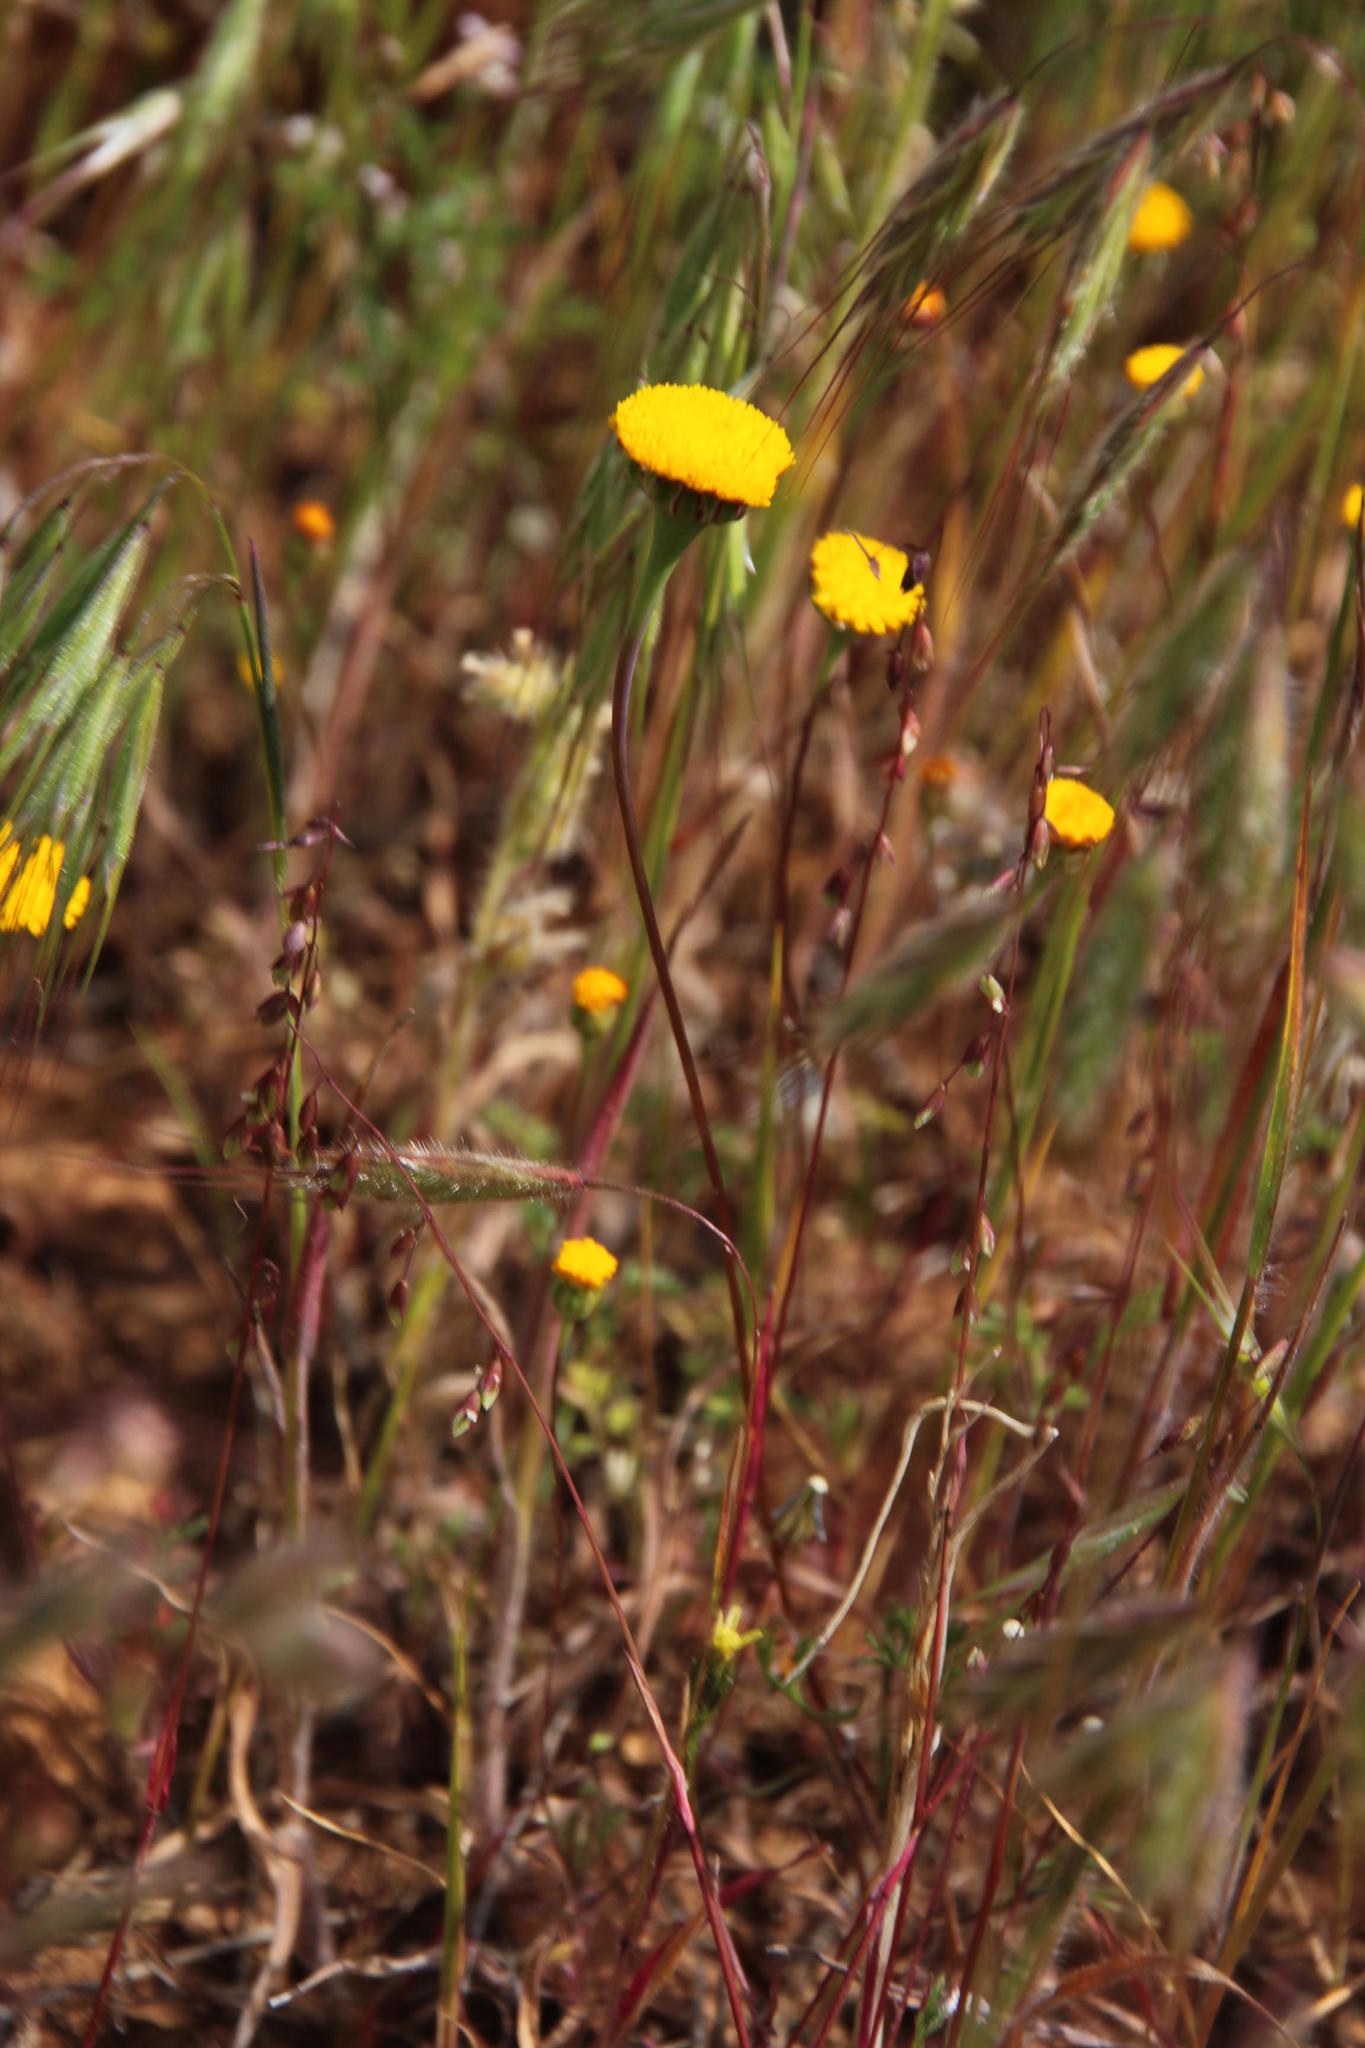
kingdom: Plantae
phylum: Tracheophyta
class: Magnoliopsida
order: Asterales
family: Asteraceae
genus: Cotula
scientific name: Cotula microglossa
